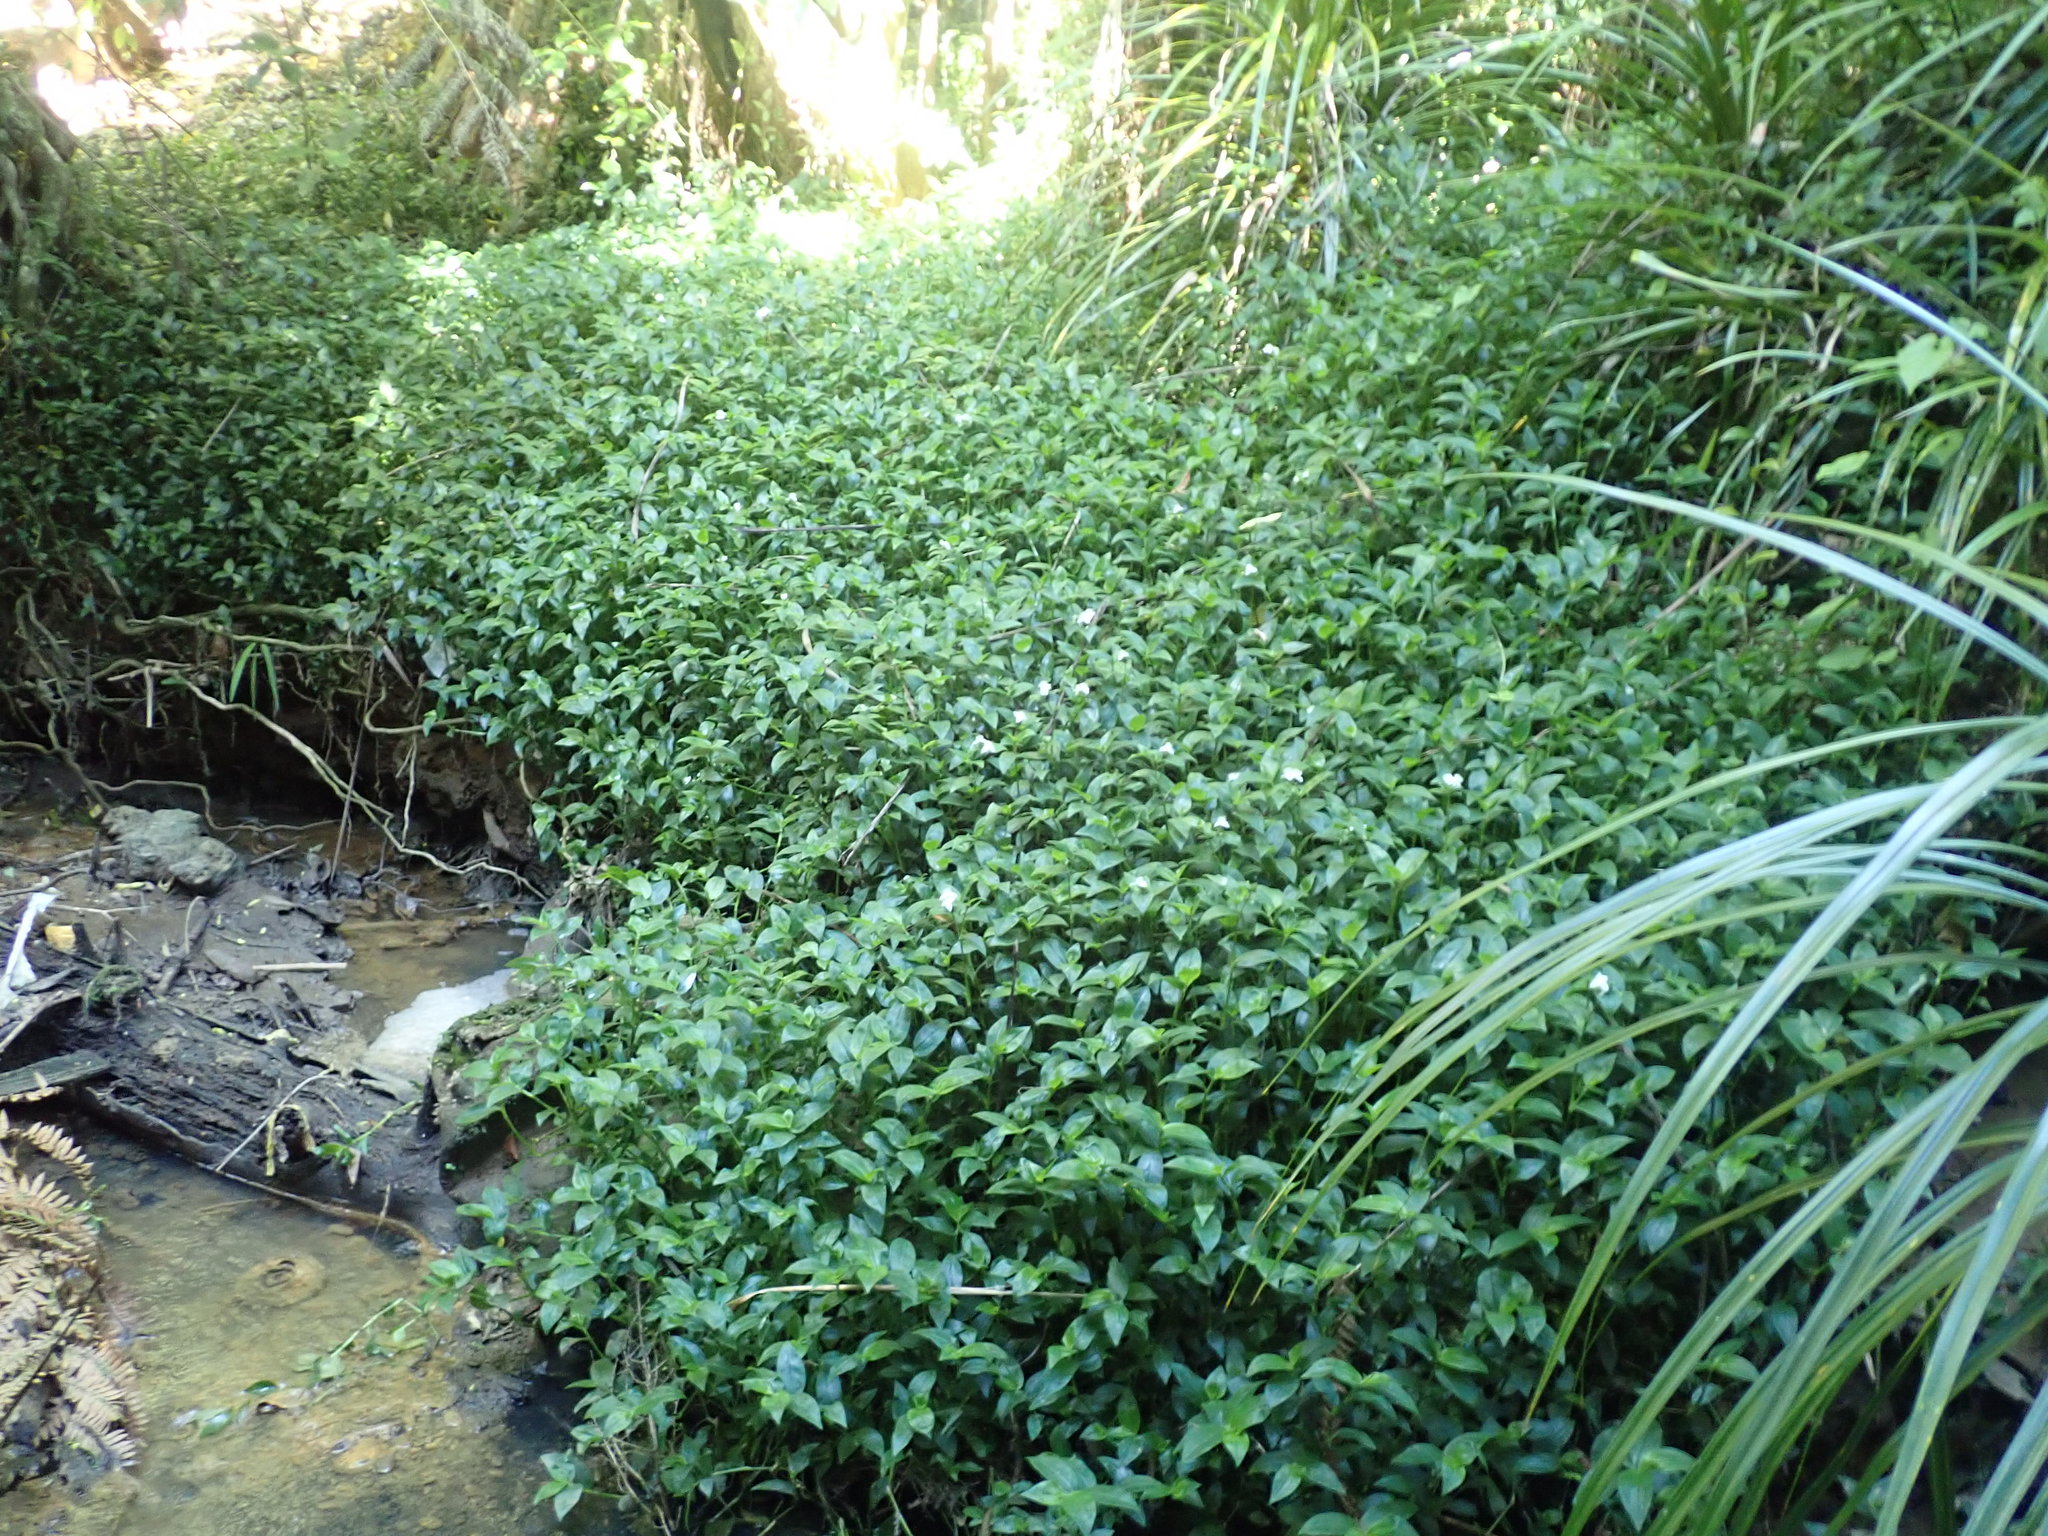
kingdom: Plantae
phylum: Tracheophyta
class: Liliopsida
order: Commelinales
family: Commelinaceae
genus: Tradescantia
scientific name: Tradescantia fluminensis
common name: Wandering-jew
